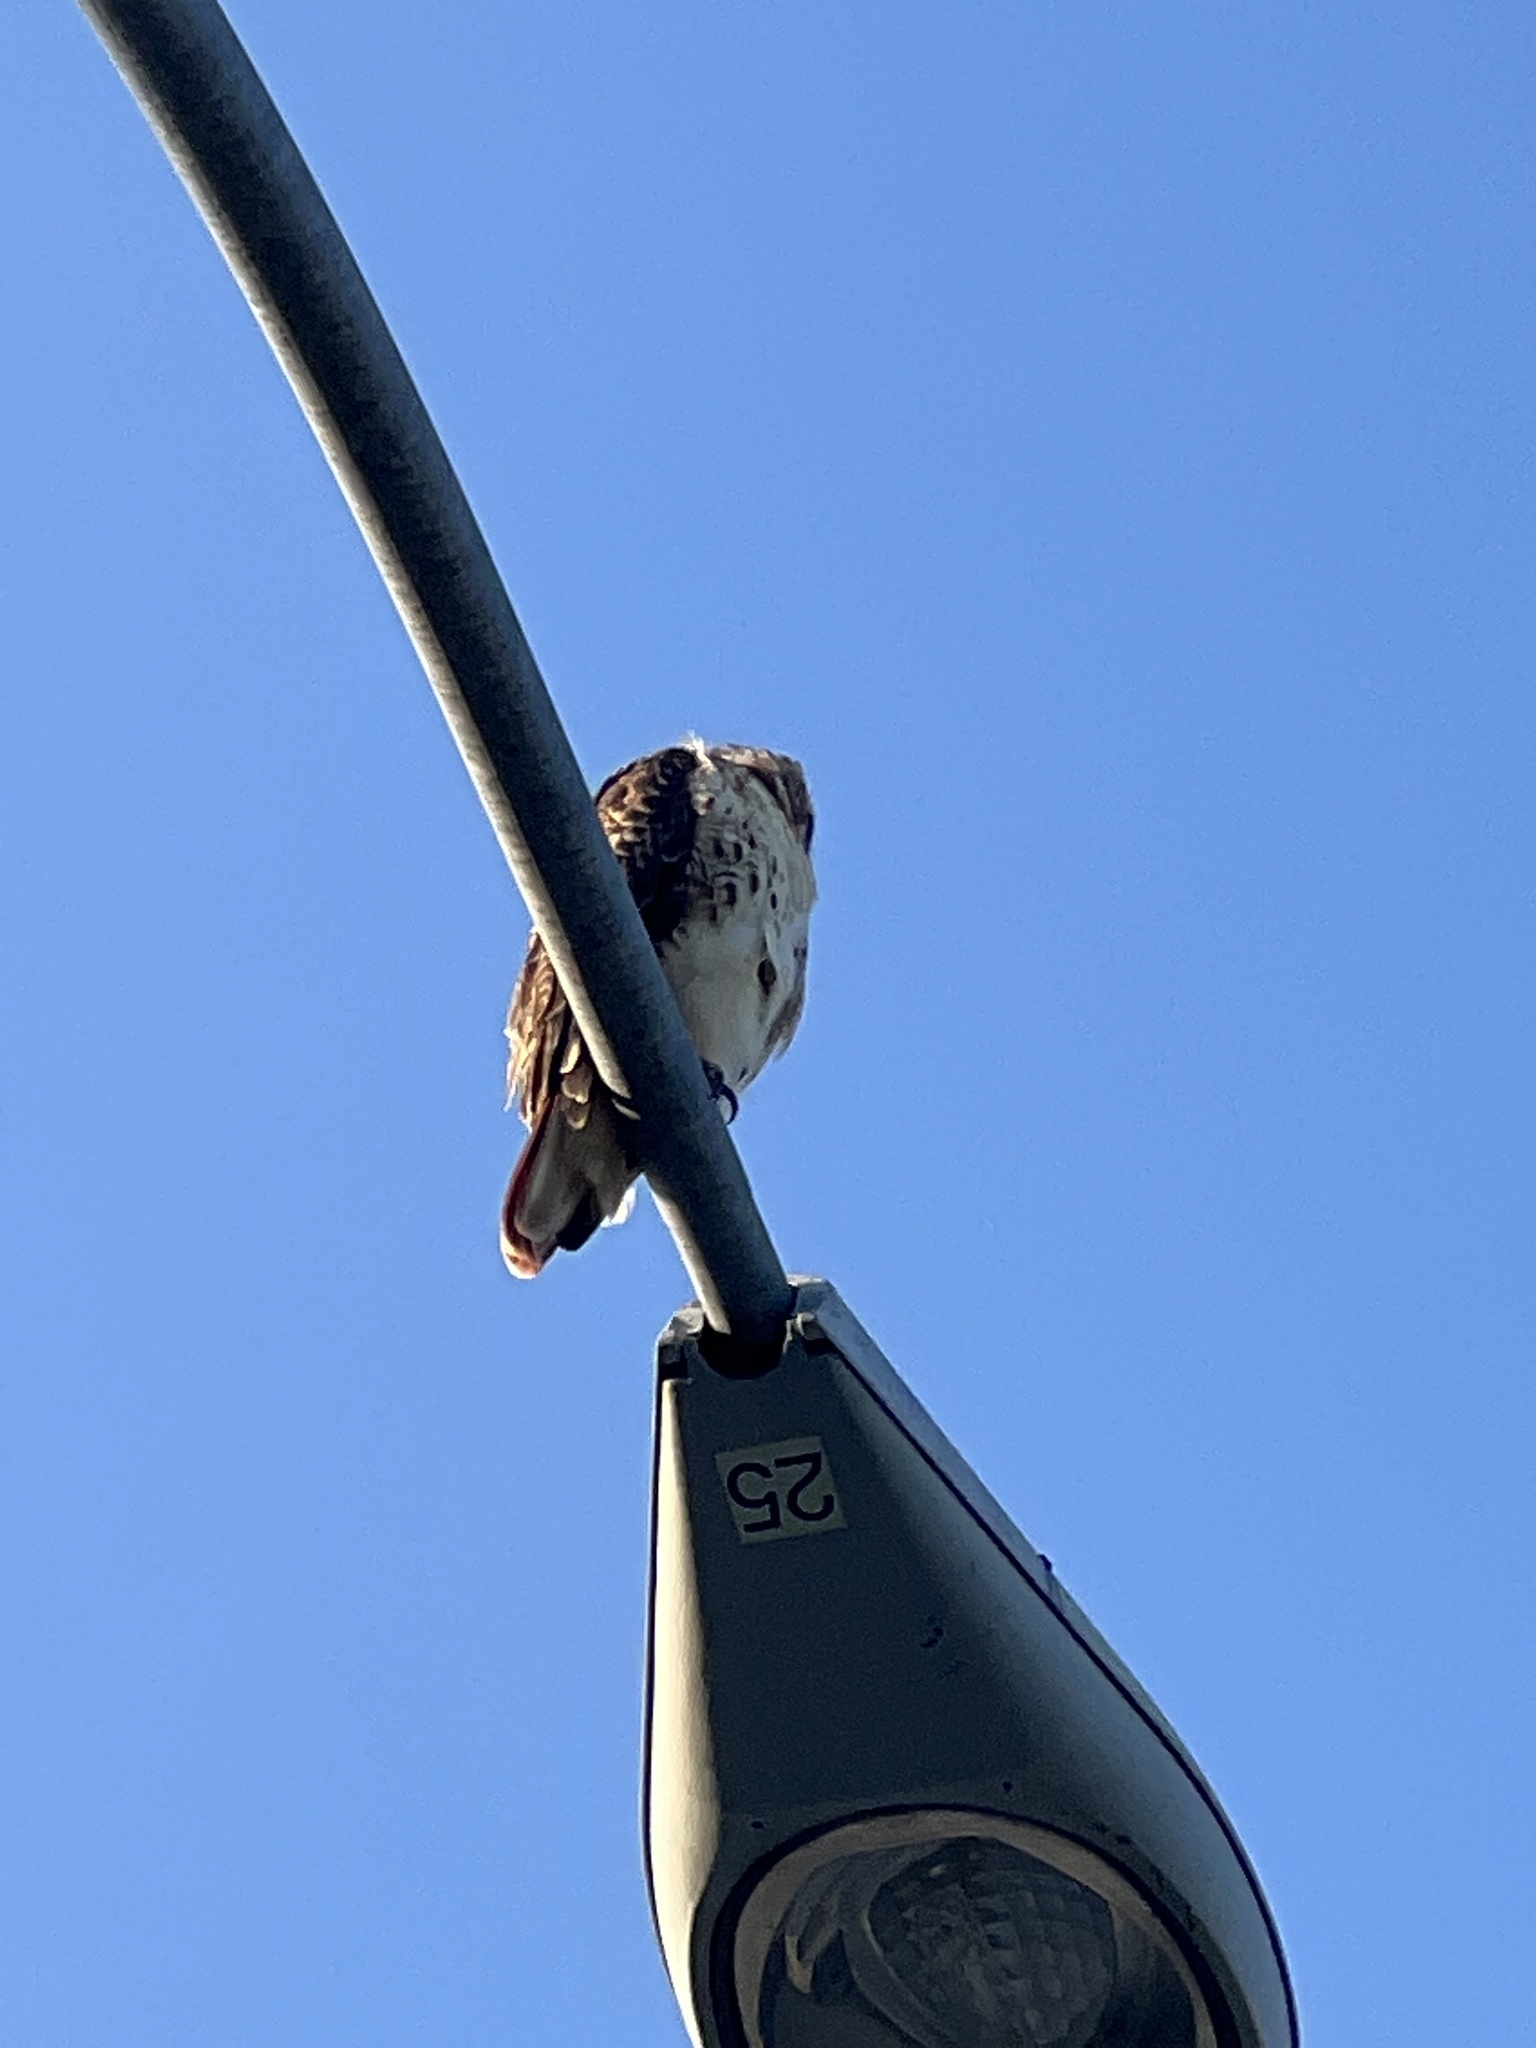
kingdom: Animalia
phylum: Chordata
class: Aves
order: Accipitriformes
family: Accipitridae
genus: Buteo
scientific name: Buteo jamaicensis
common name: Red-tailed hawk
